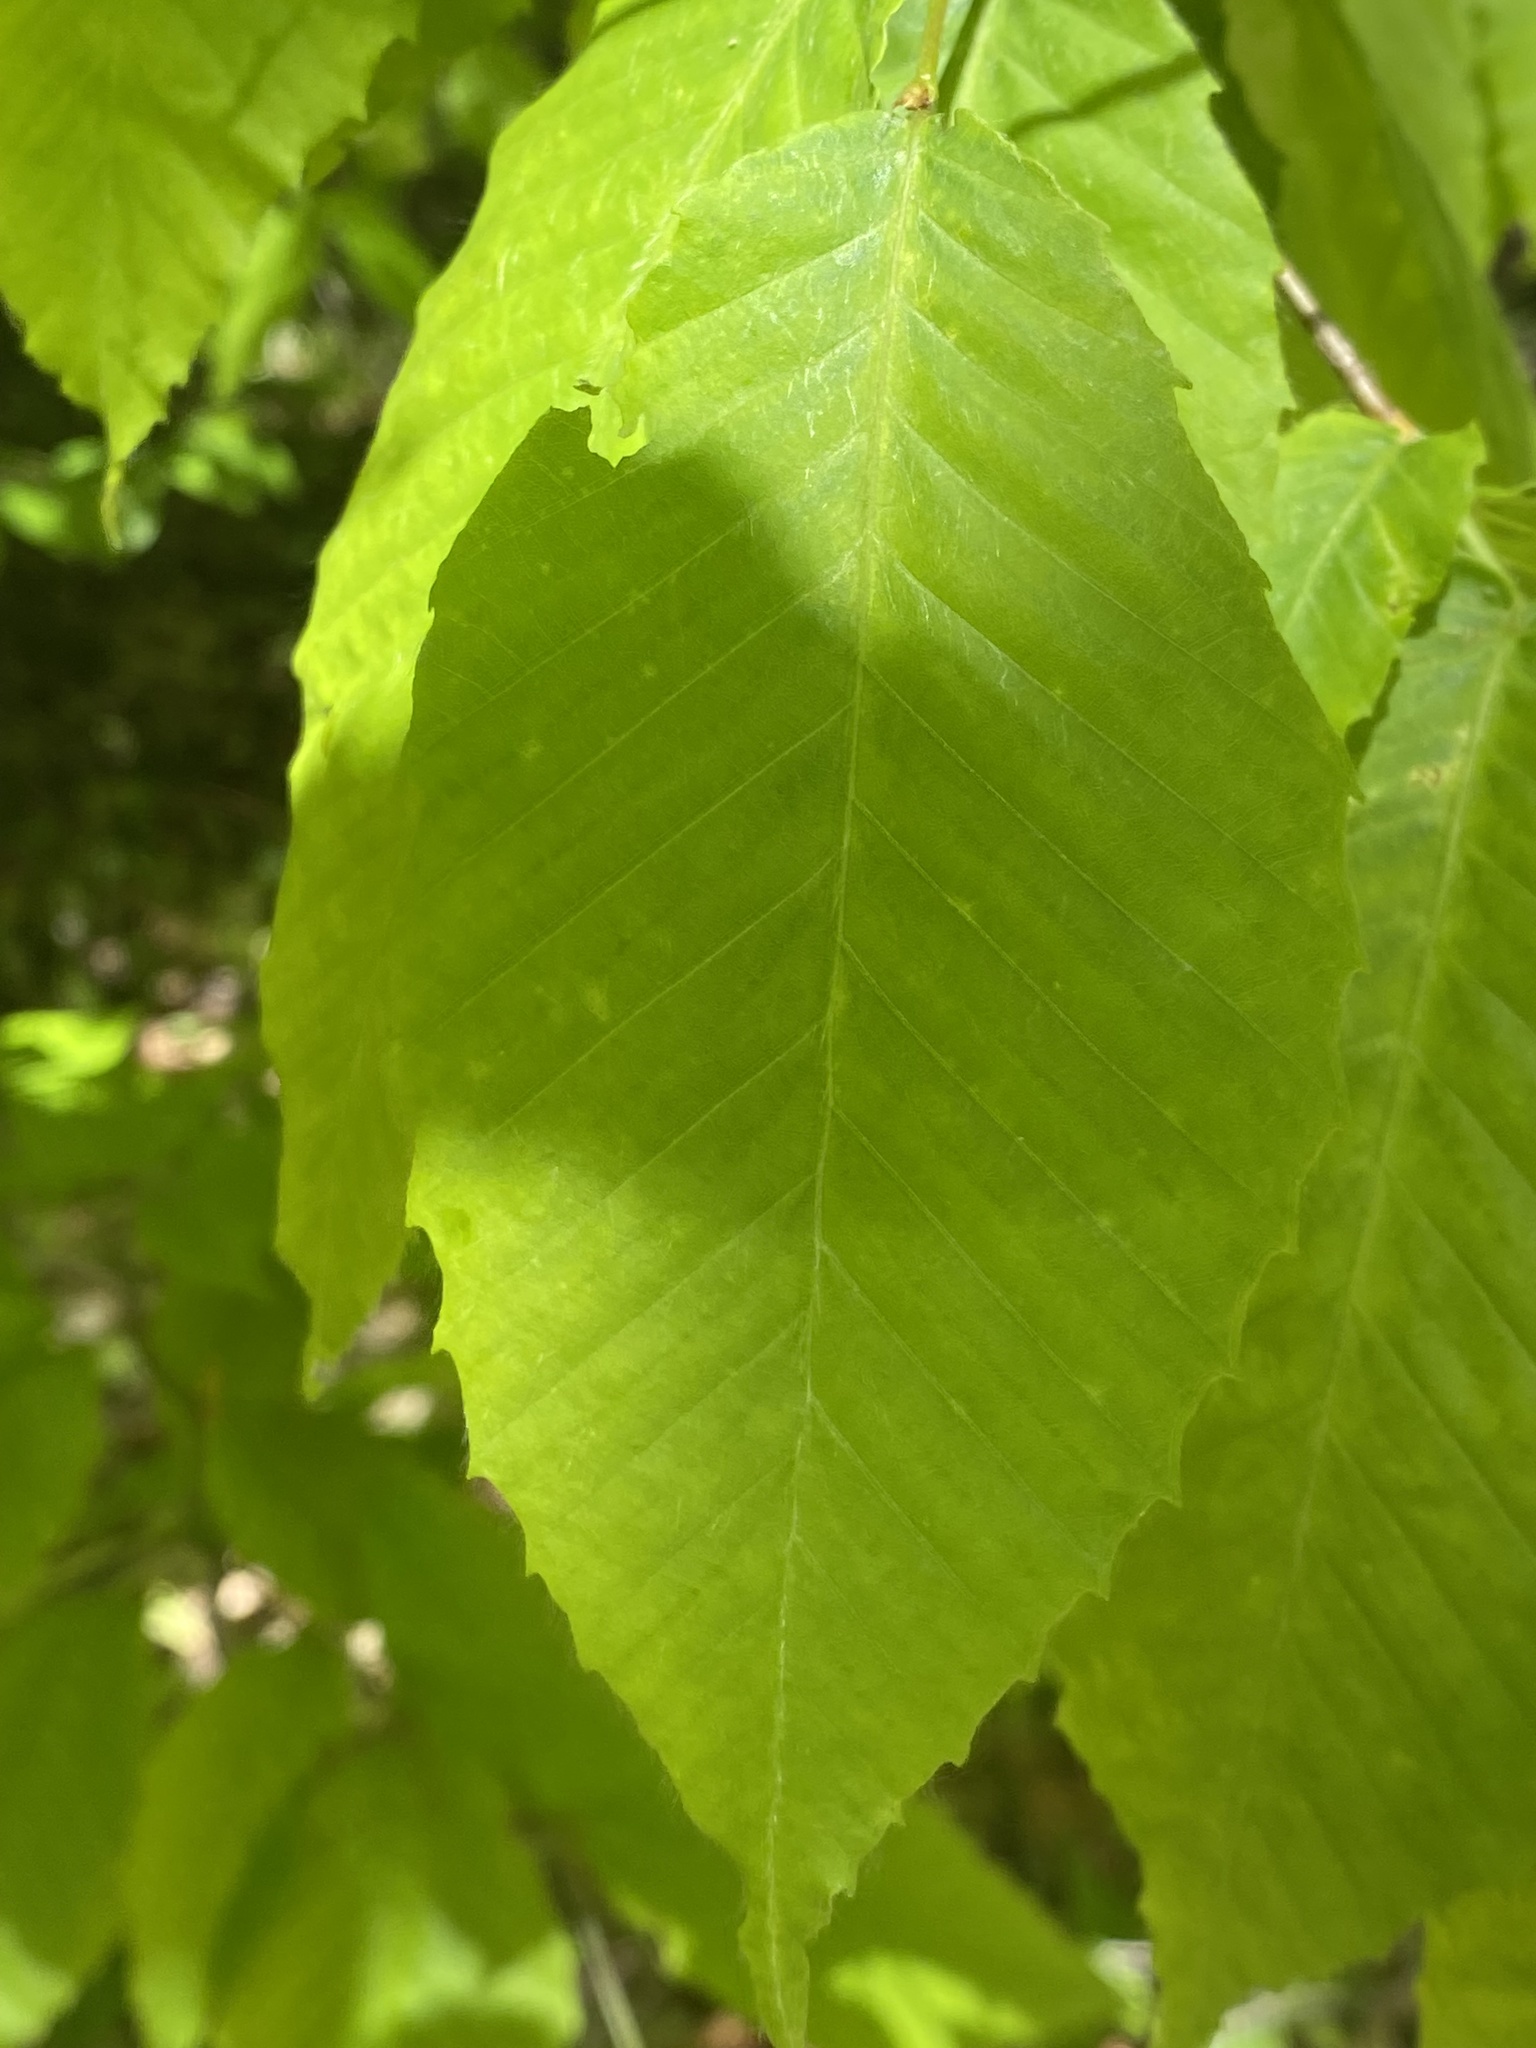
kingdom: Plantae
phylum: Tracheophyta
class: Magnoliopsida
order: Fagales
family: Fagaceae
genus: Fagus
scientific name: Fagus grandifolia
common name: American beech
